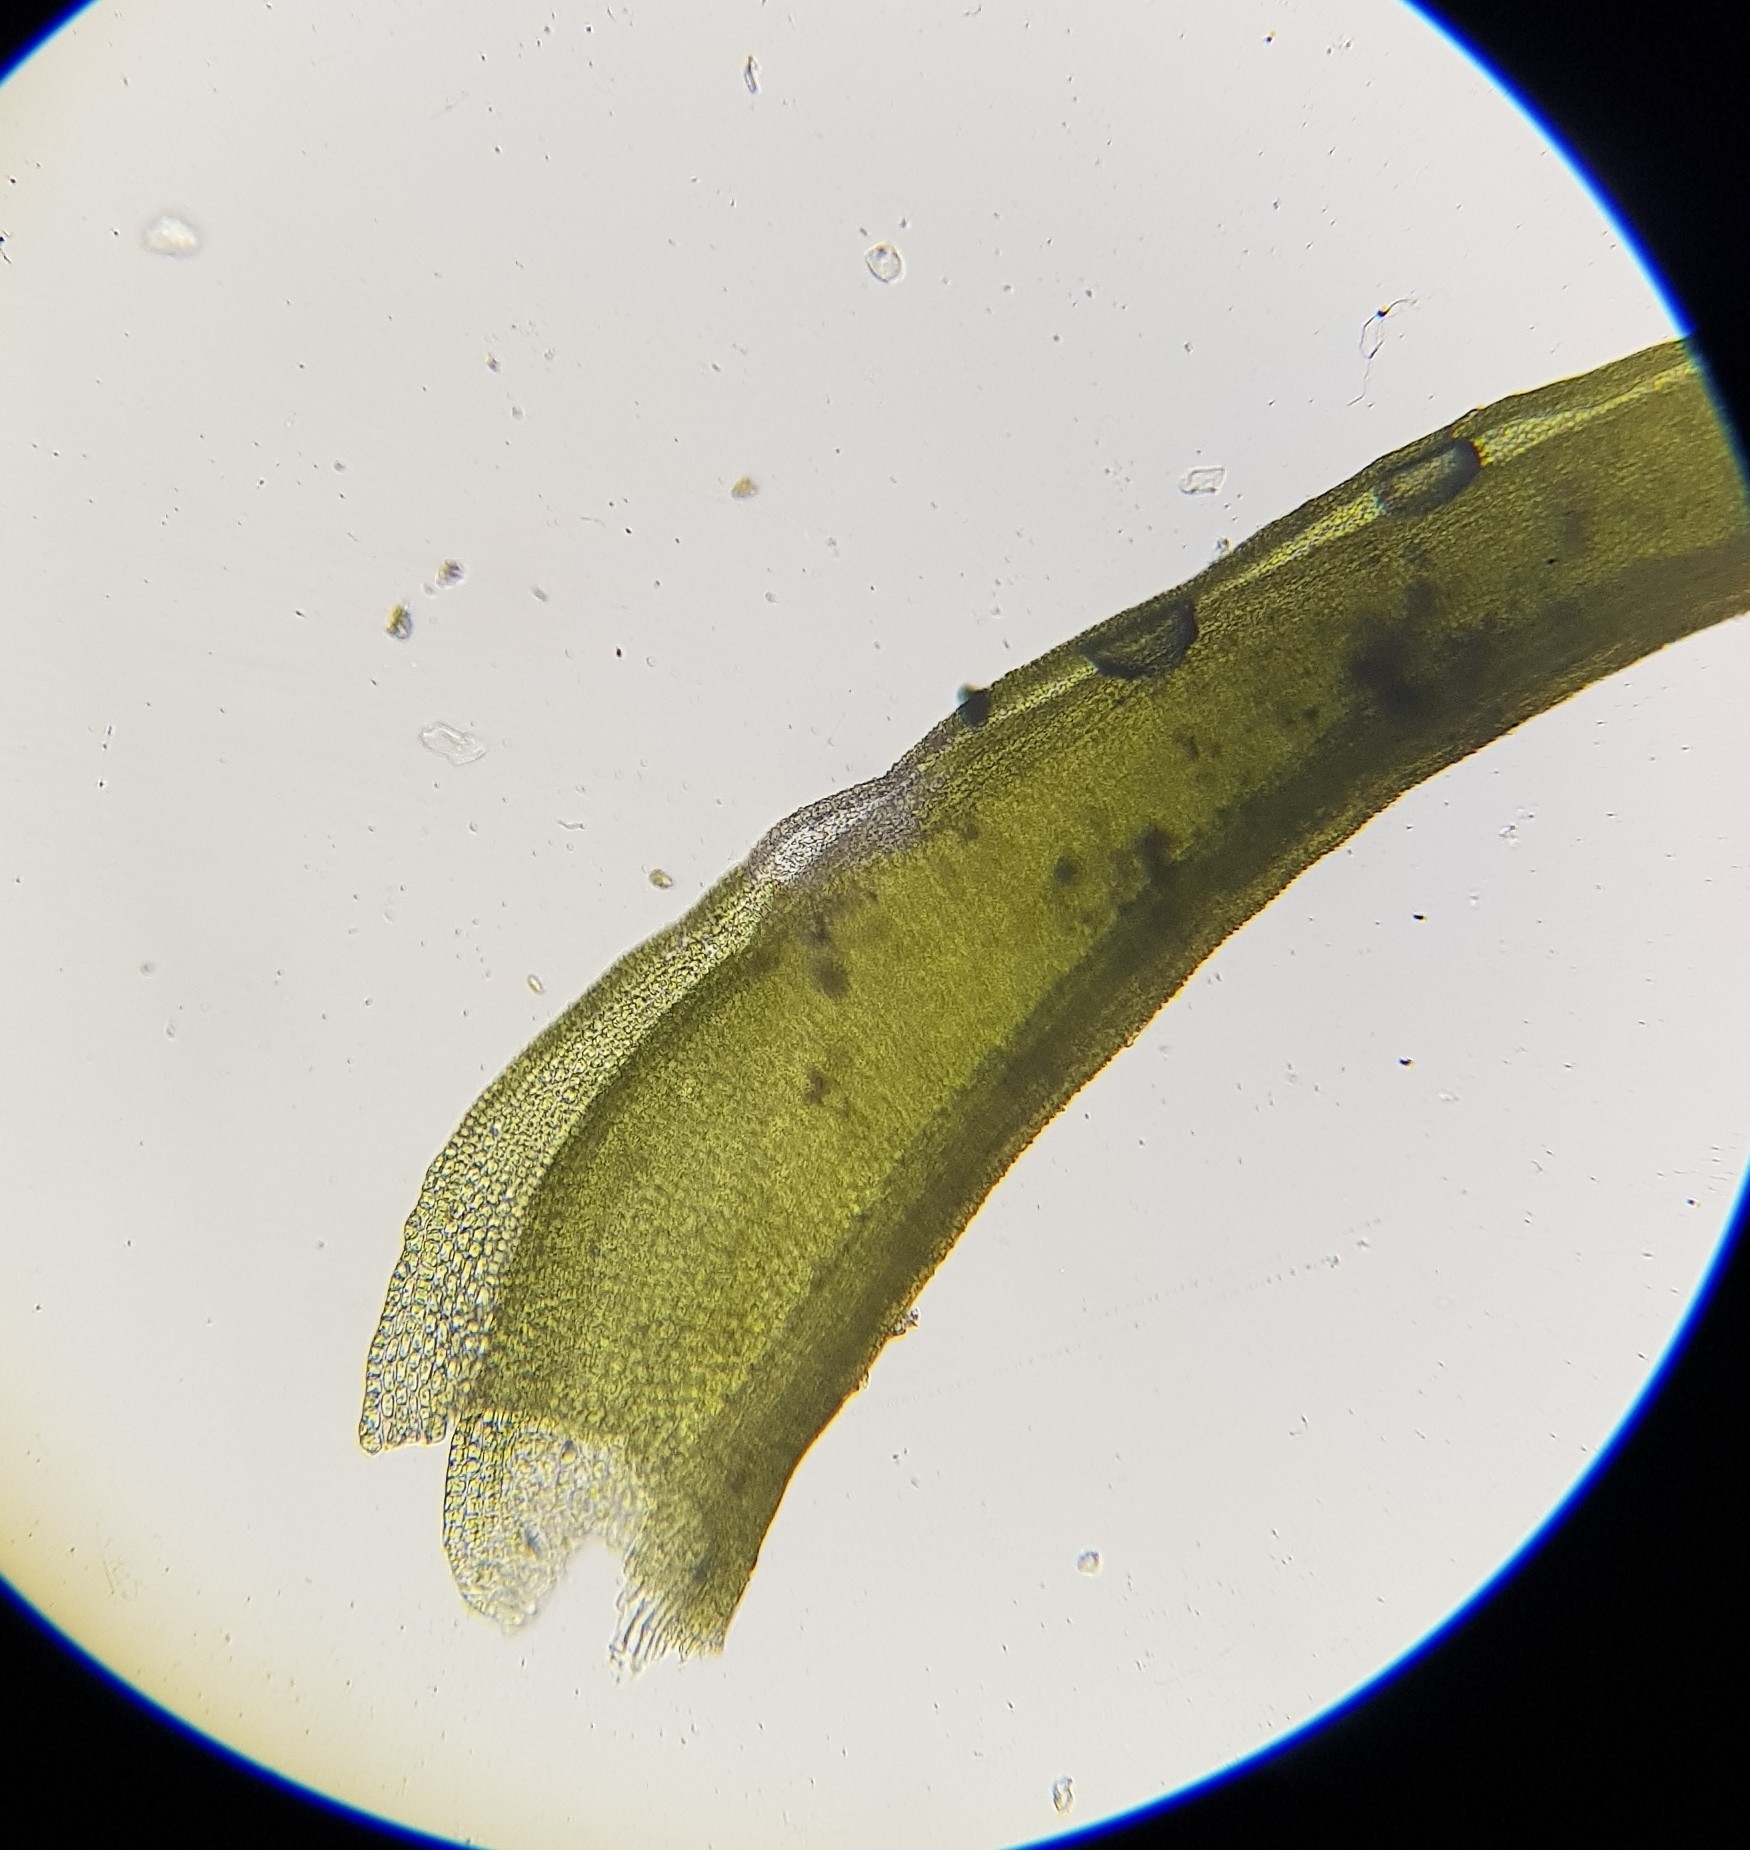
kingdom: Plantae
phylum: Bryophyta
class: Bryopsida
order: Pottiales
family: Pottiaceae
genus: Vinealobryum
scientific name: Vinealobryum insulanum
